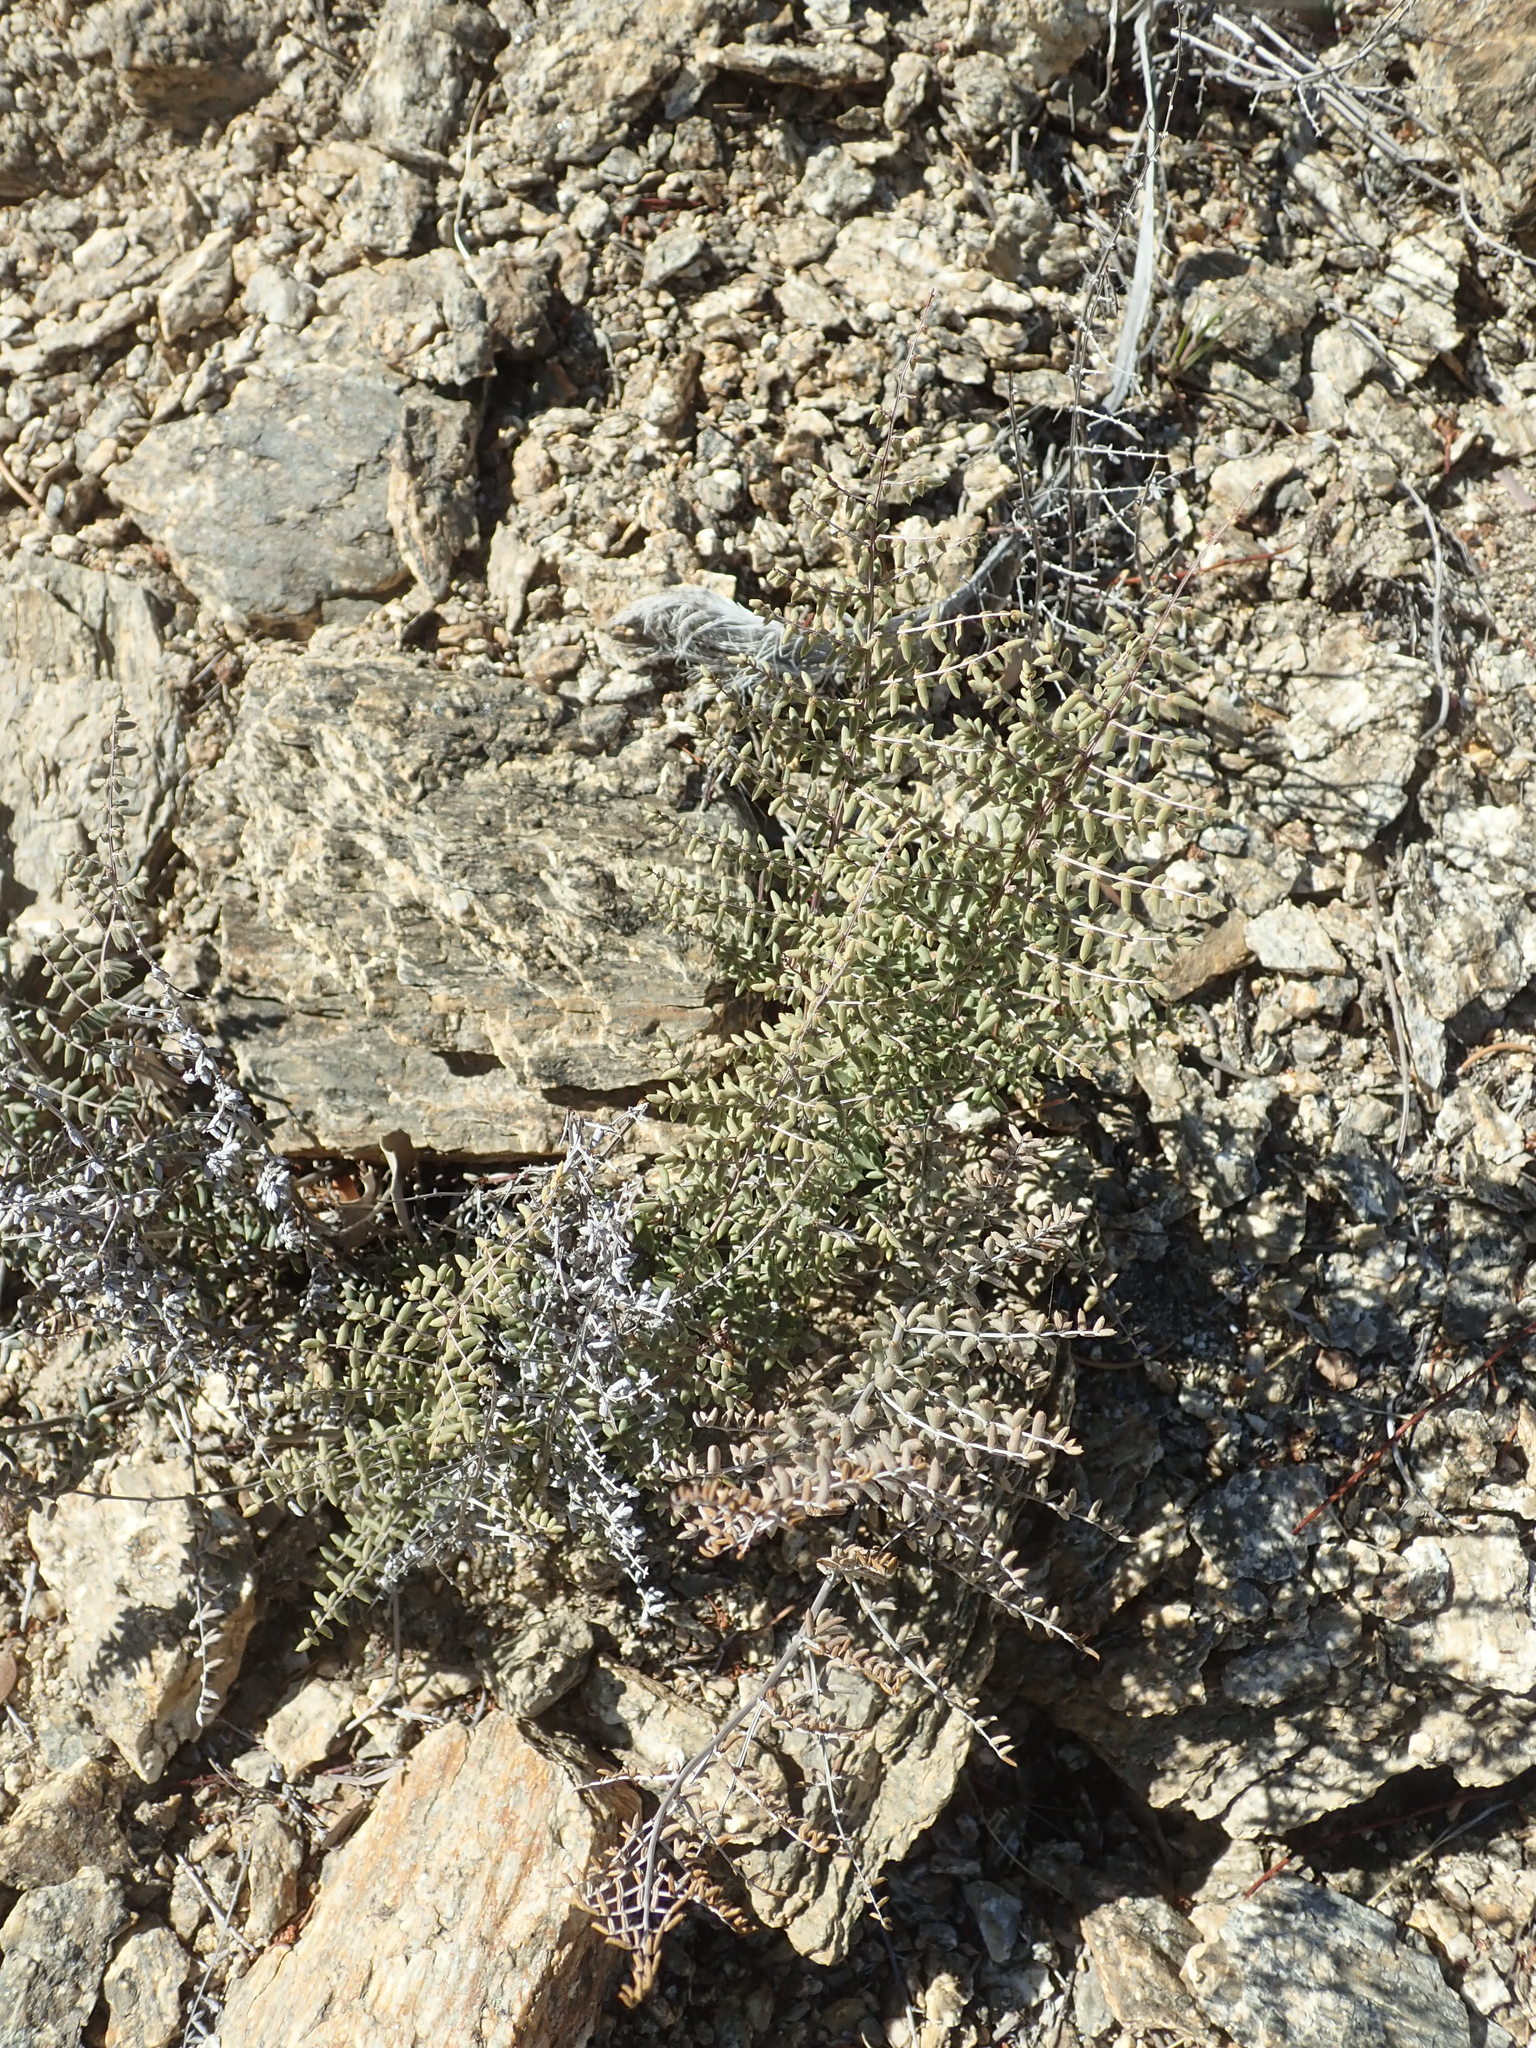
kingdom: Plantae
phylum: Tracheophyta
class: Polypodiopsida
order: Polypodiales
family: Pteridaceae
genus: Pellaea
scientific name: Pellaea mucronata
